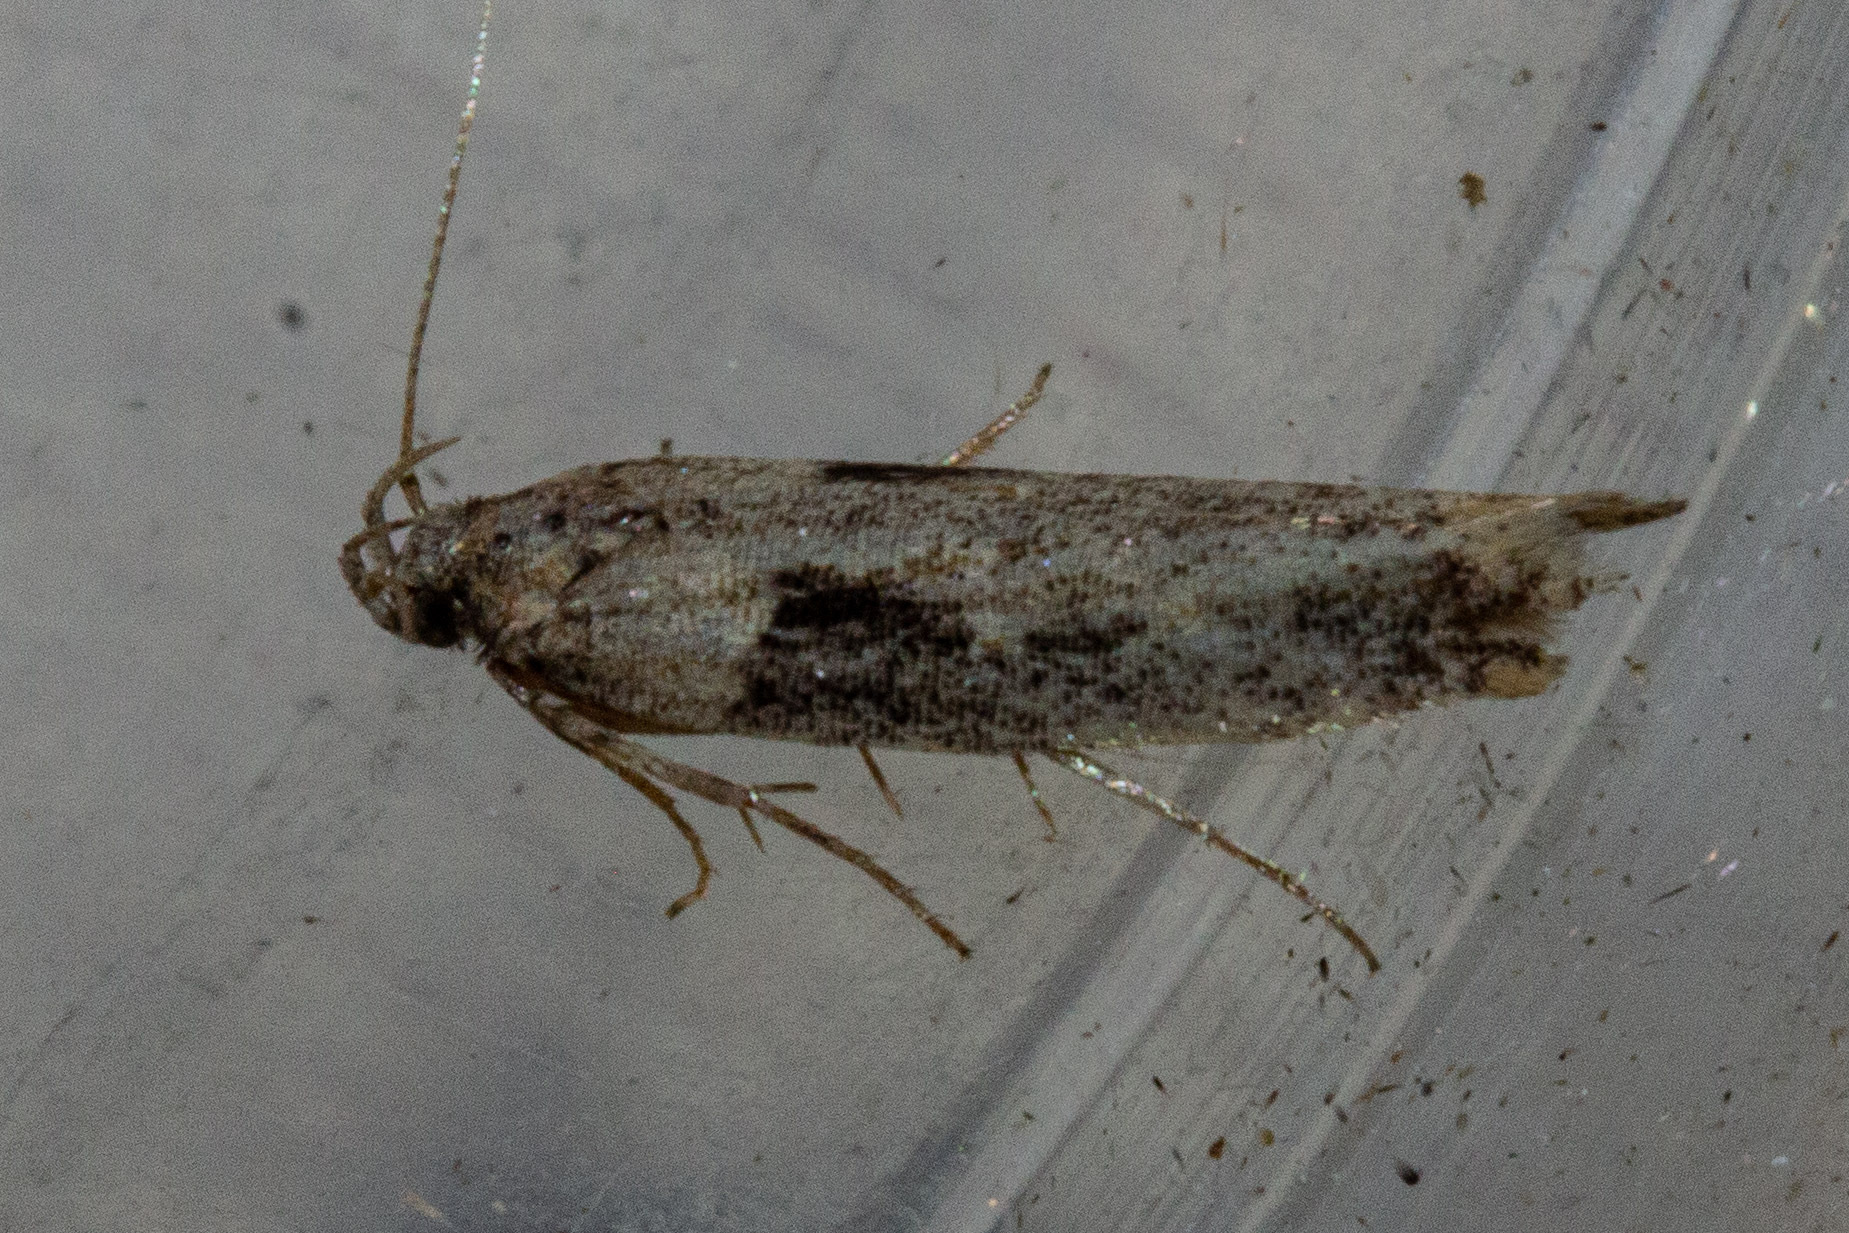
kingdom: Animalia
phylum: Arthropoda
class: Insecta
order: Lepidoptera
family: Gelechiidae
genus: Symmetrischema
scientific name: Symmetrischema tangolias
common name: Moth
